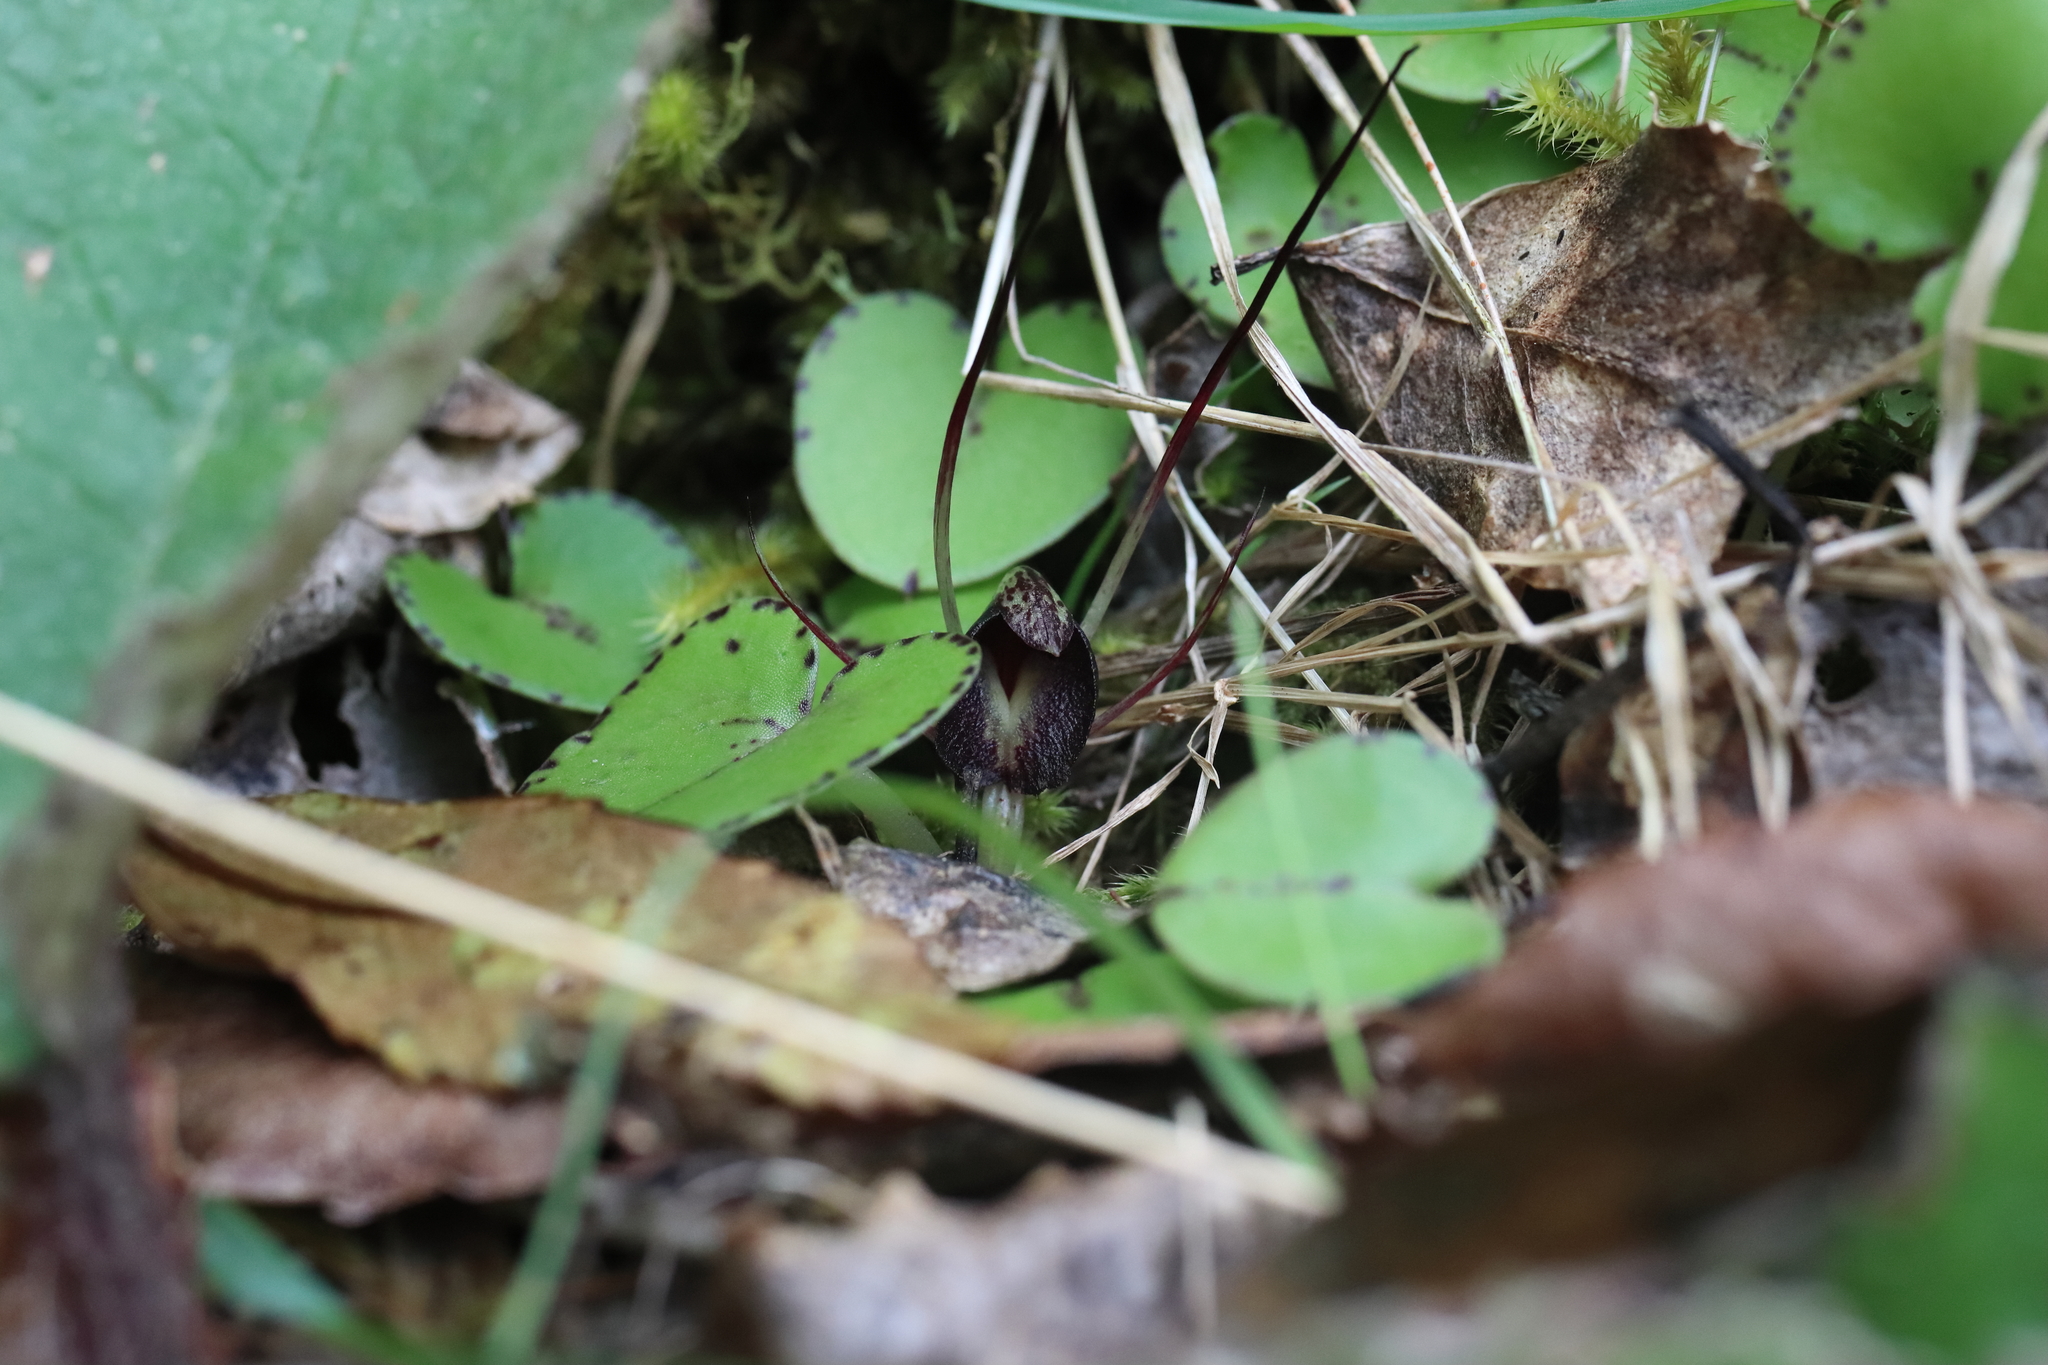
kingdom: Plantae
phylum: Tracheophyta
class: Liliopsida
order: Asparagales
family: Orchidaceae
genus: Corybas
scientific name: Corybas macranthus
